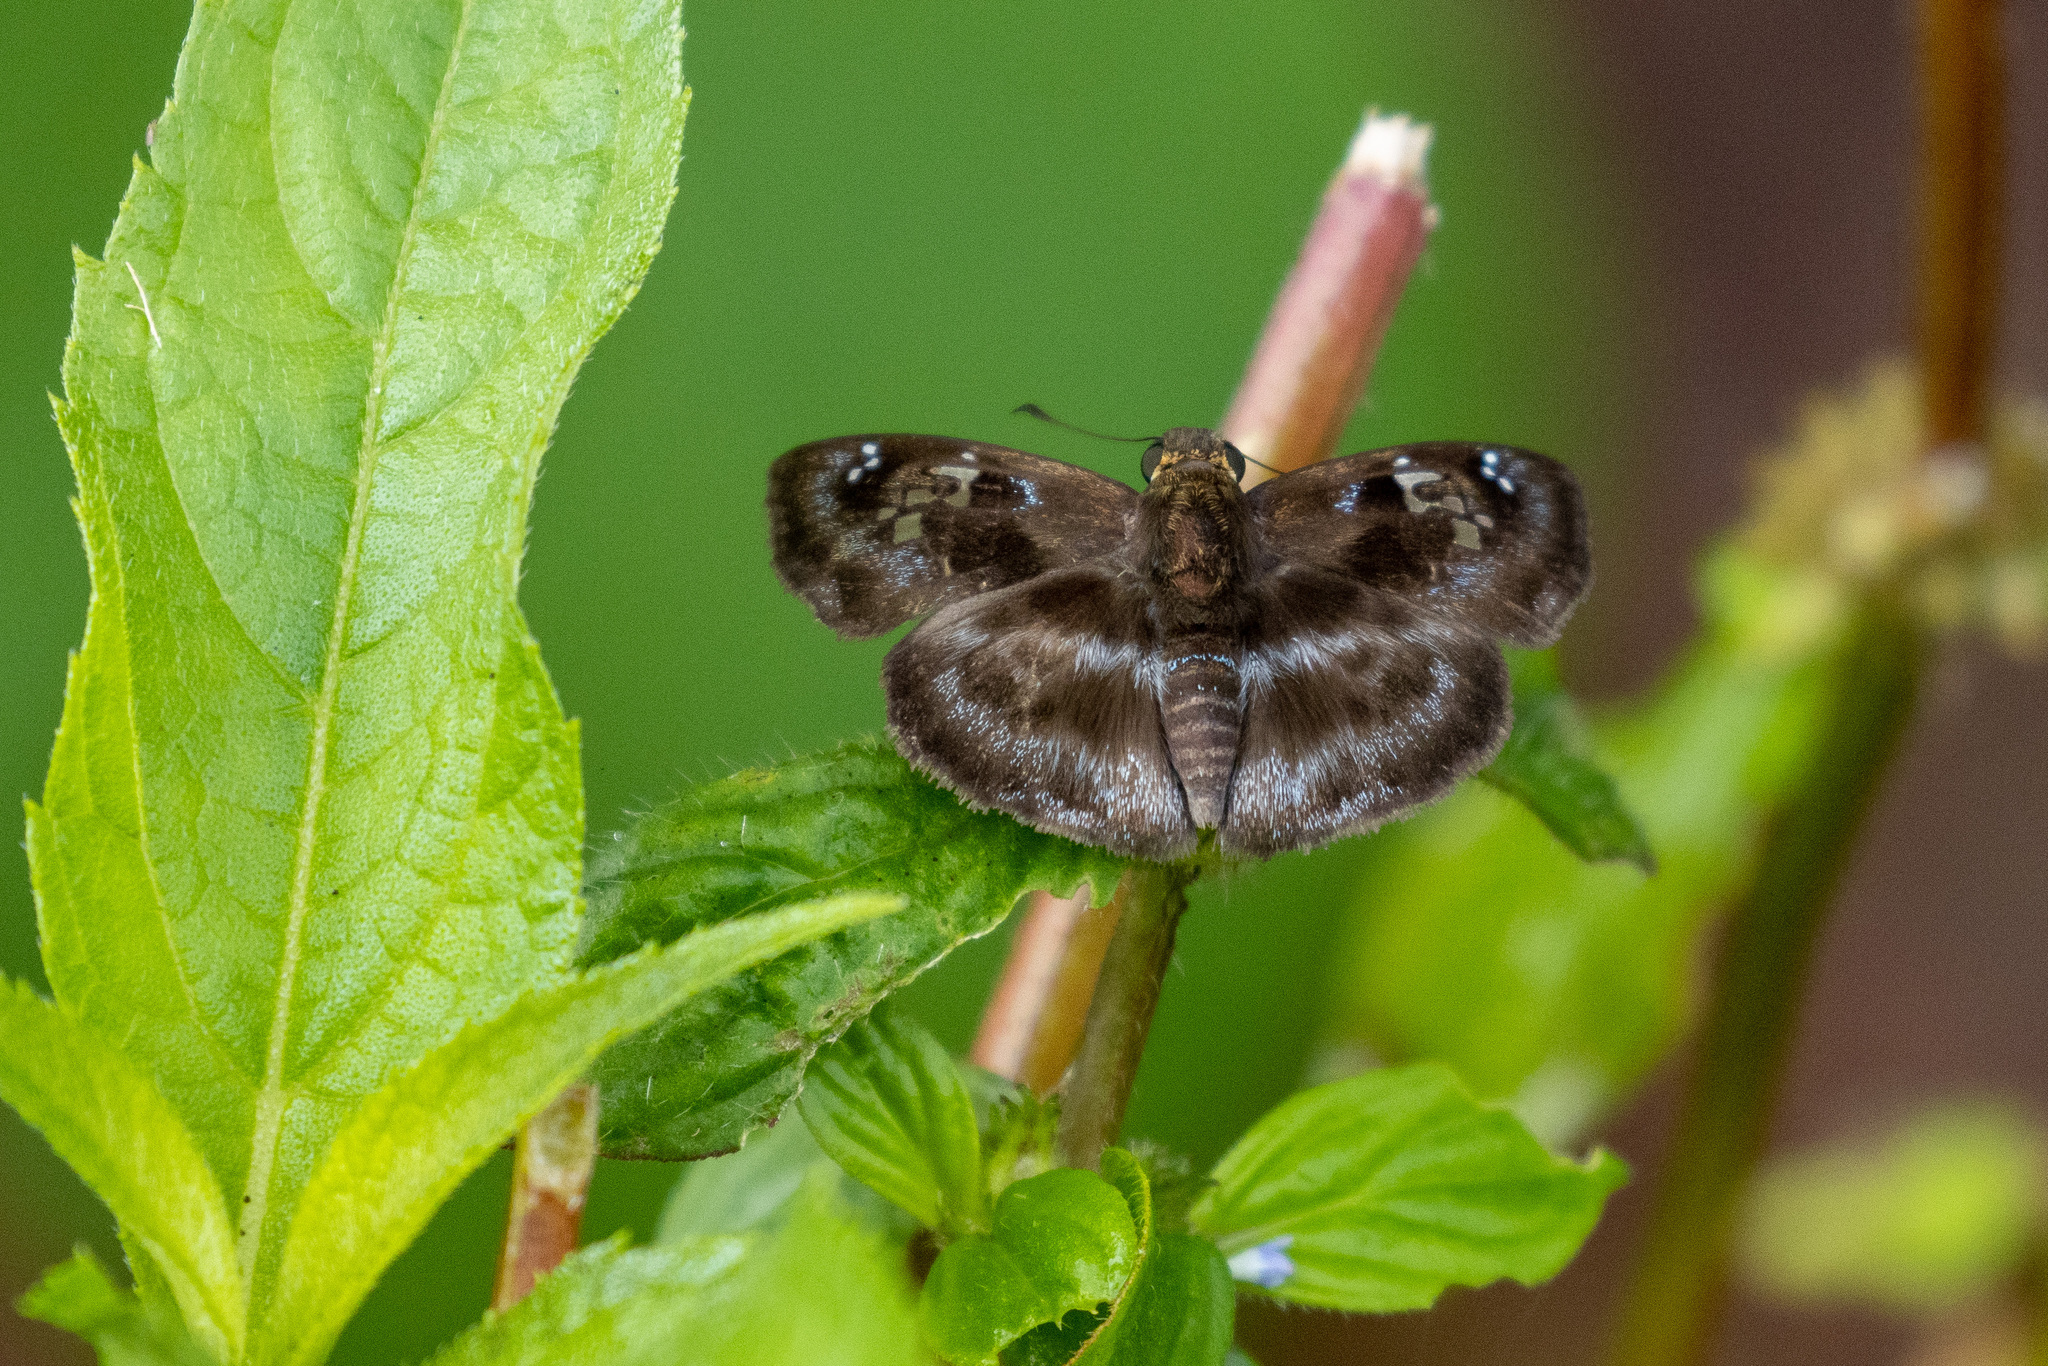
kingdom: Animalia
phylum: Arthropoda
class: Insecta
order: Lepidoptera
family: Hesperiidae
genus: Quadrus
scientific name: Quadrus cerialis
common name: Common blue-skipper
